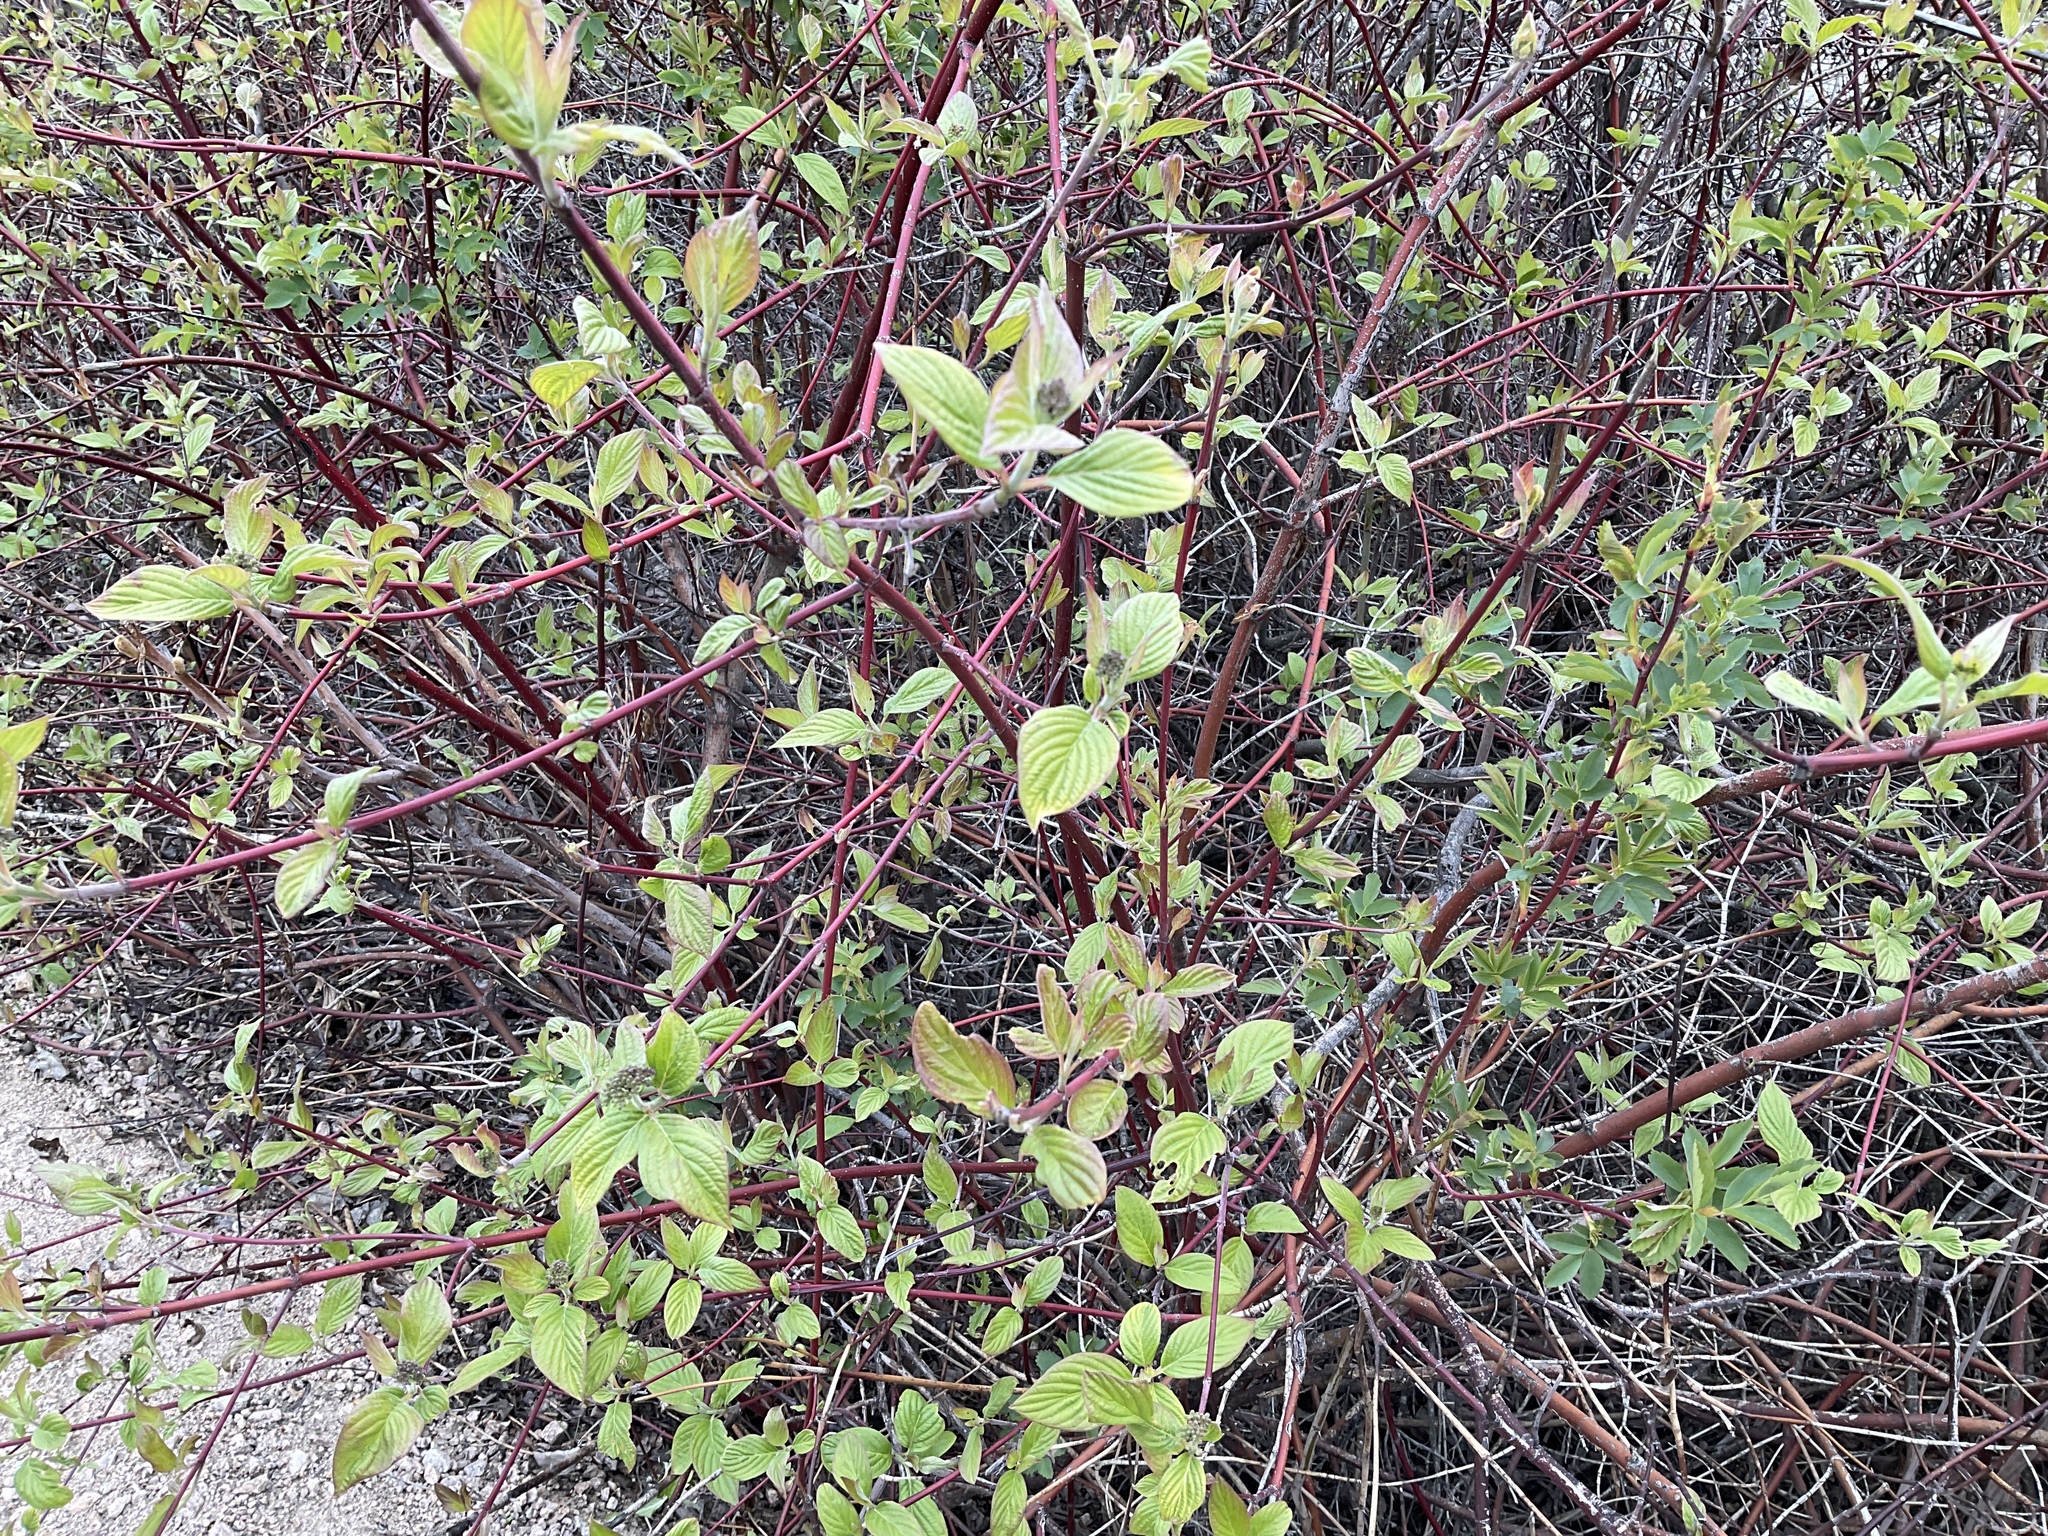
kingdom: Plantae
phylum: Tracheophyta
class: Magnoliopsida
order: Cornales
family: Cornaceae
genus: Cornus
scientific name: Cornus sericea
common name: Red-osier dogwood
